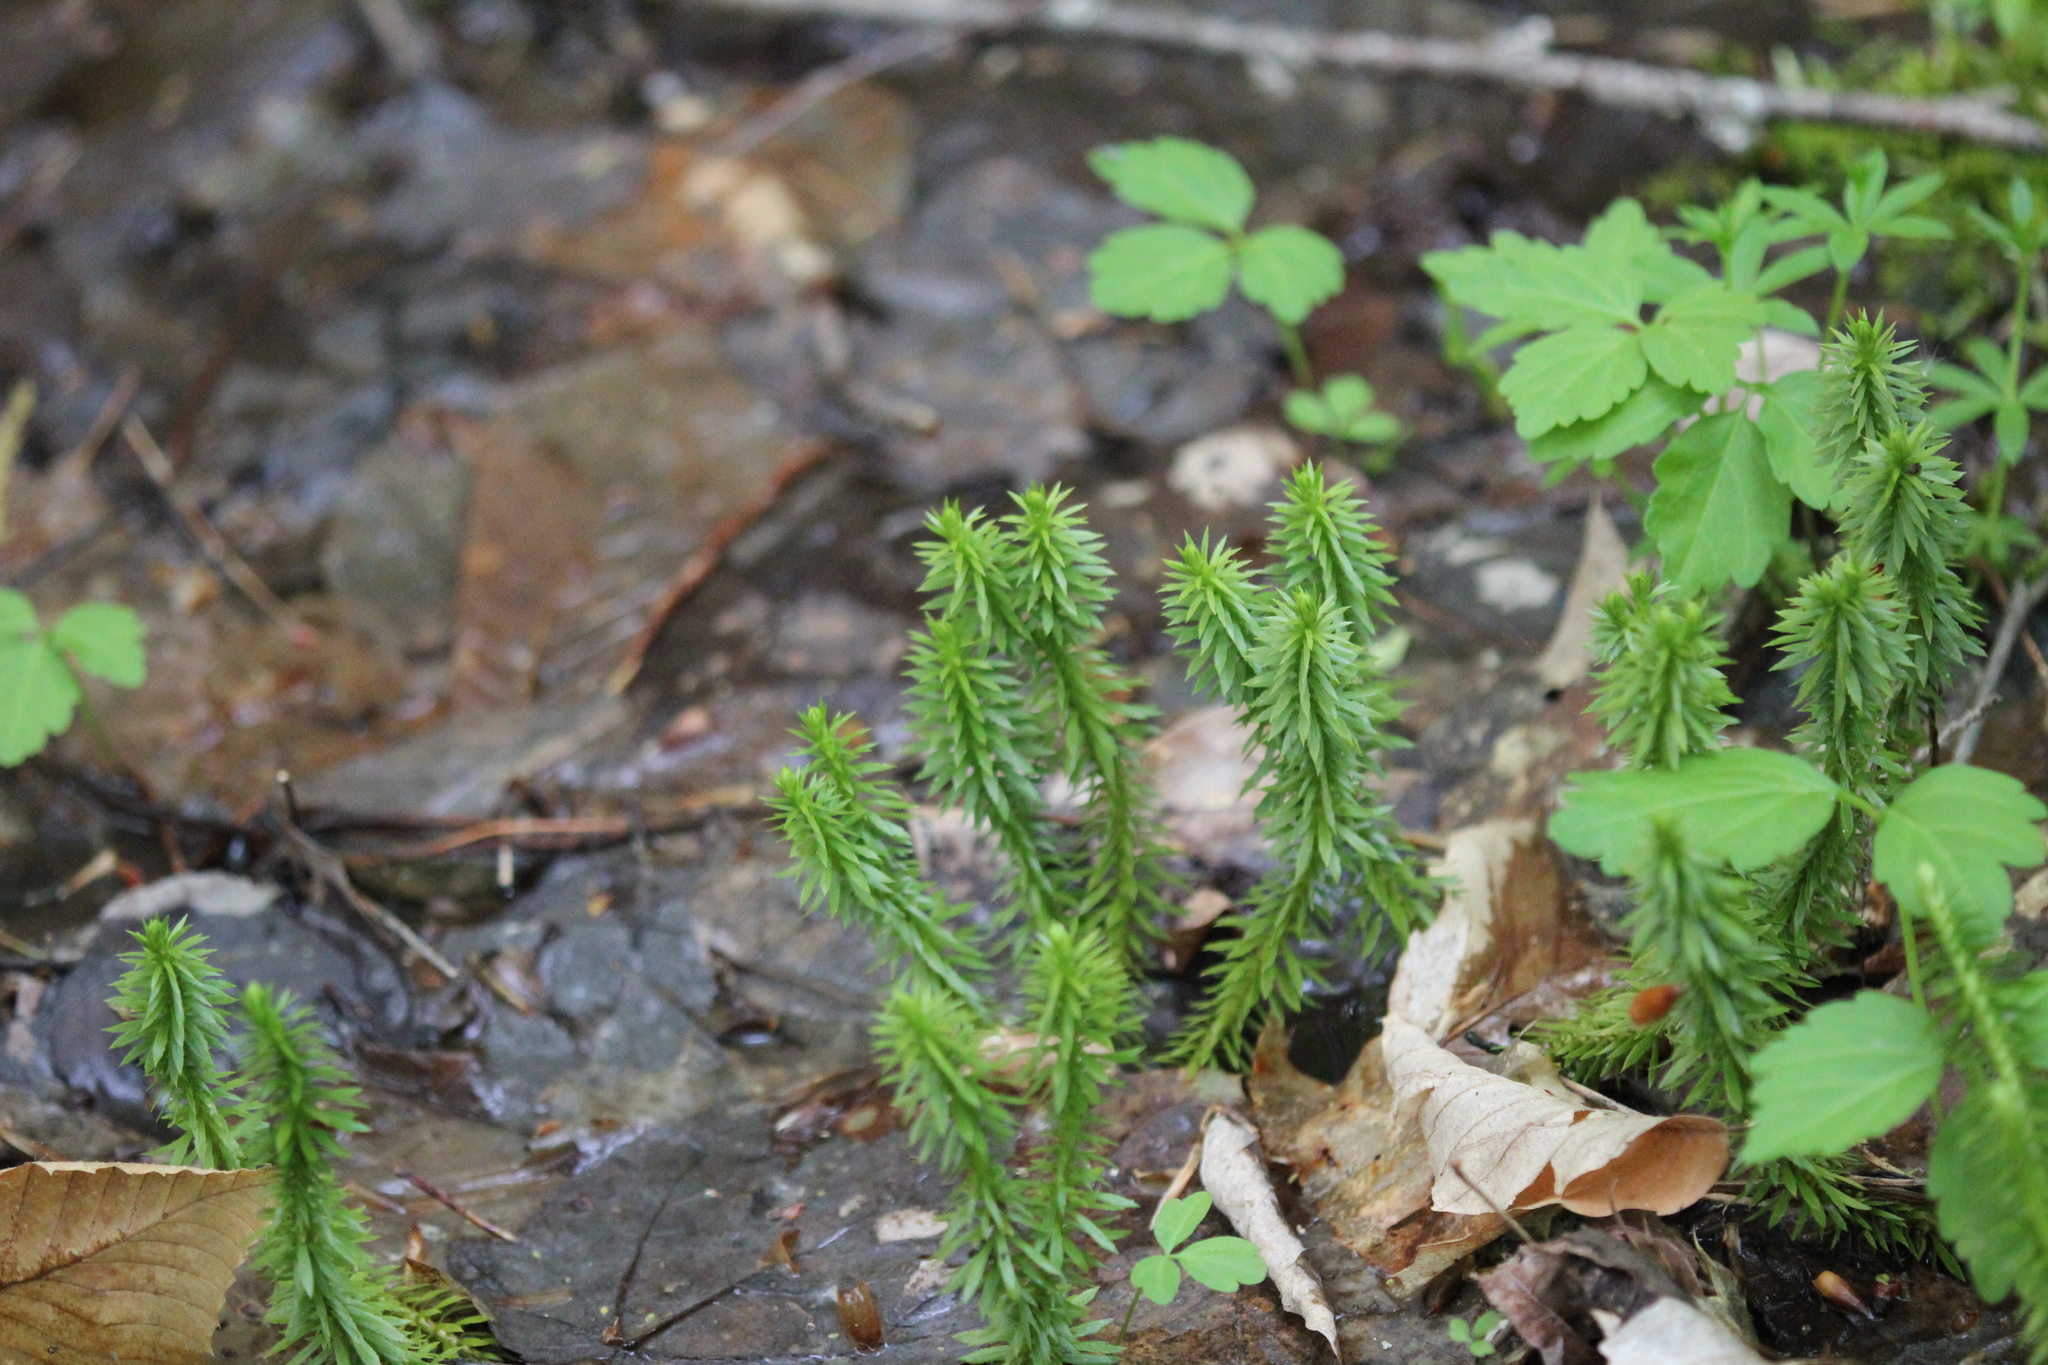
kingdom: Plantae
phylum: Tracheophyta
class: Lycopodiopsida
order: Lycopodiales
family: Lycopodiaceae
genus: Huperzia
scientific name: Huperzia lucidula
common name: Shining clubmoss
